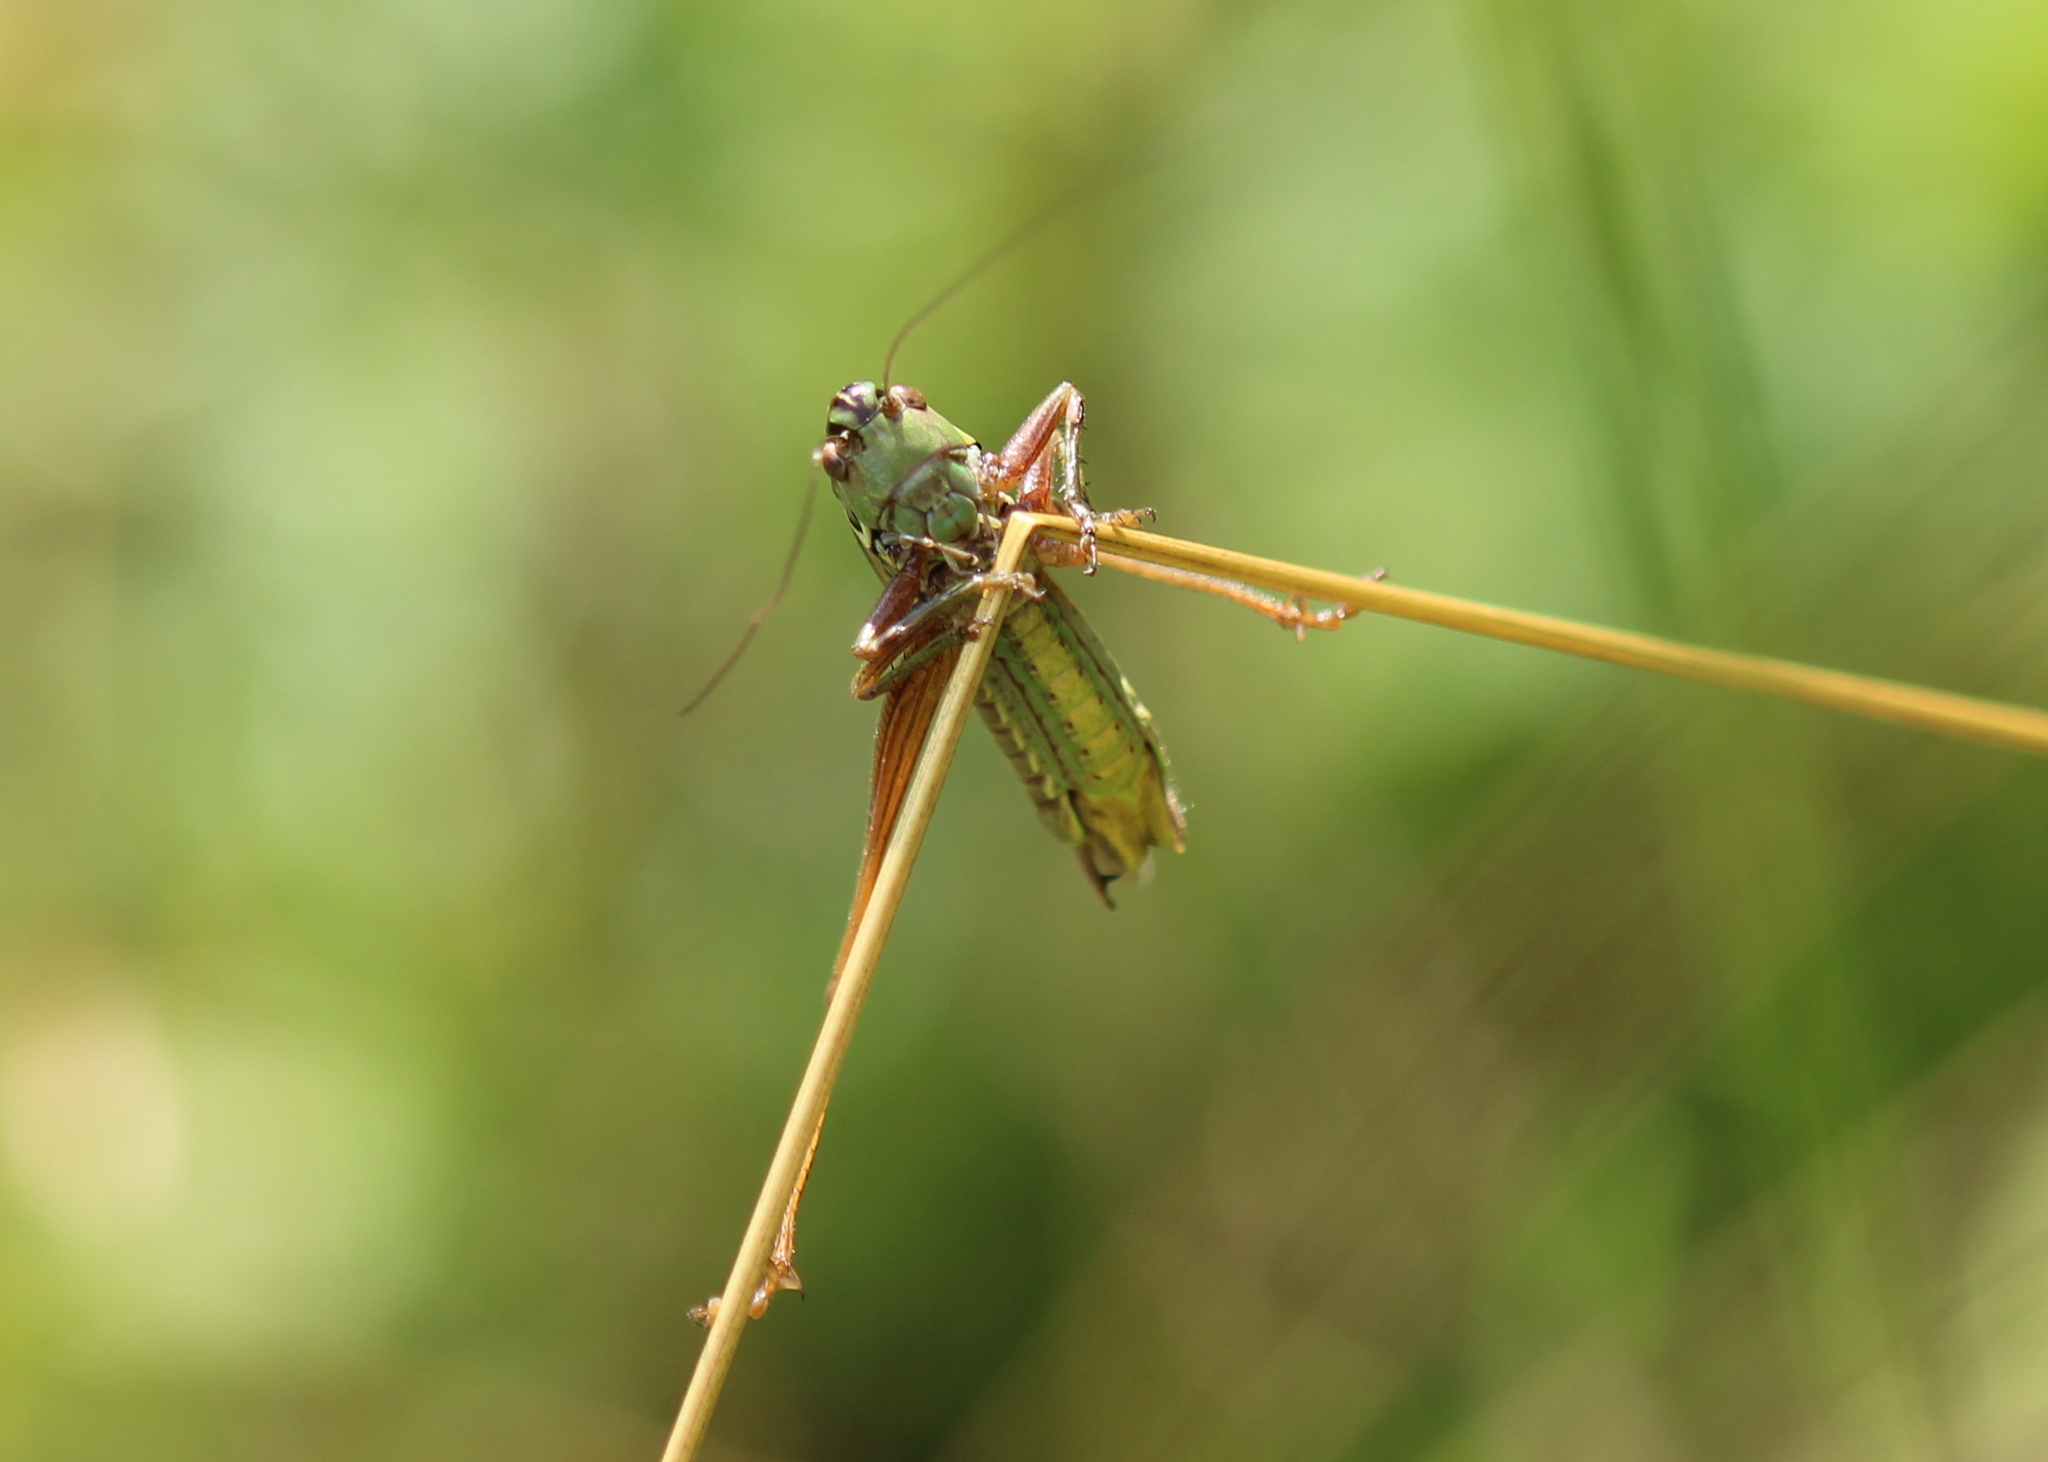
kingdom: Animalia
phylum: Arthropoda
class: Insecta
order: Orthoptera
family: Tettigoniidae
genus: Roeseliana
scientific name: Roeseliana roeselii
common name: Roesel's bush cricket
